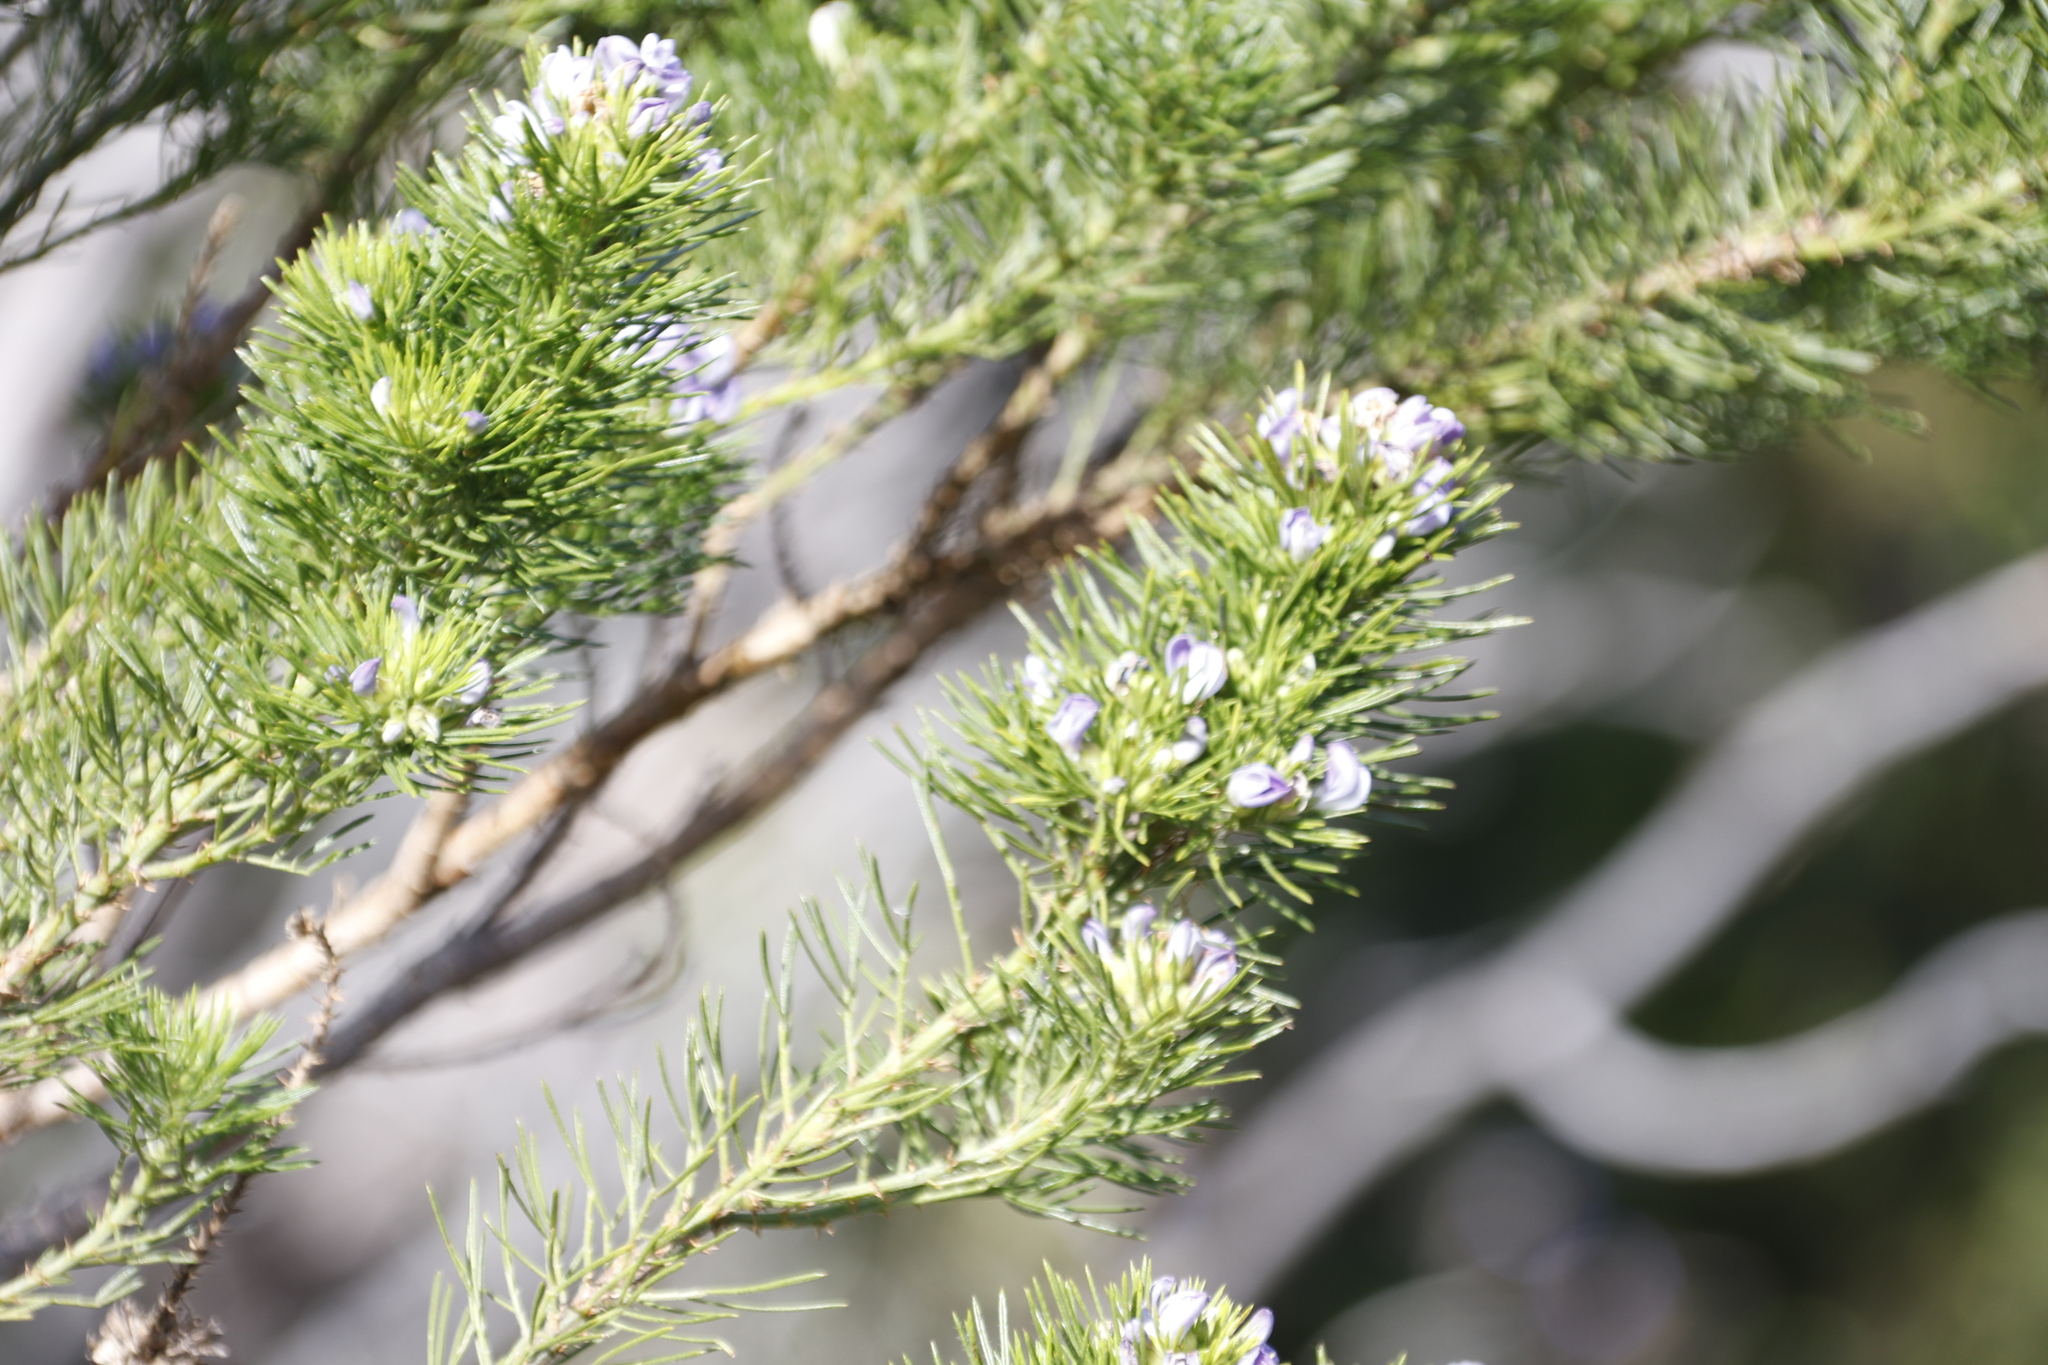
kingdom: Plantae
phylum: Tracheophyta
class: Magnoliopsida
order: Fabales
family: Fabaceae
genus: Psoralea
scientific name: Psoralea pinnata
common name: African scurfpea
